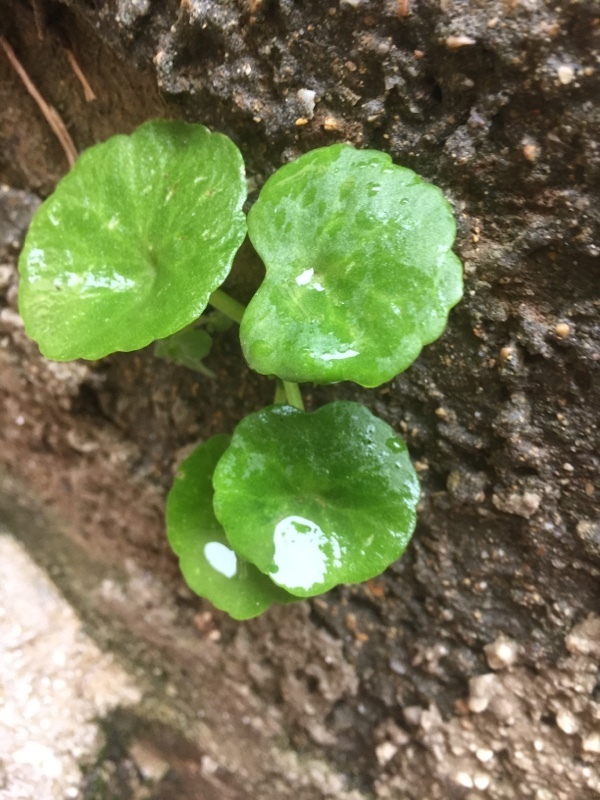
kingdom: Plantae
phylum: Tracheophyta
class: Magnoliopsida
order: Saxifragales
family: Crassulaceae
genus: Umbilicus
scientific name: Umbilicus rupestris
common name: Navelwort
